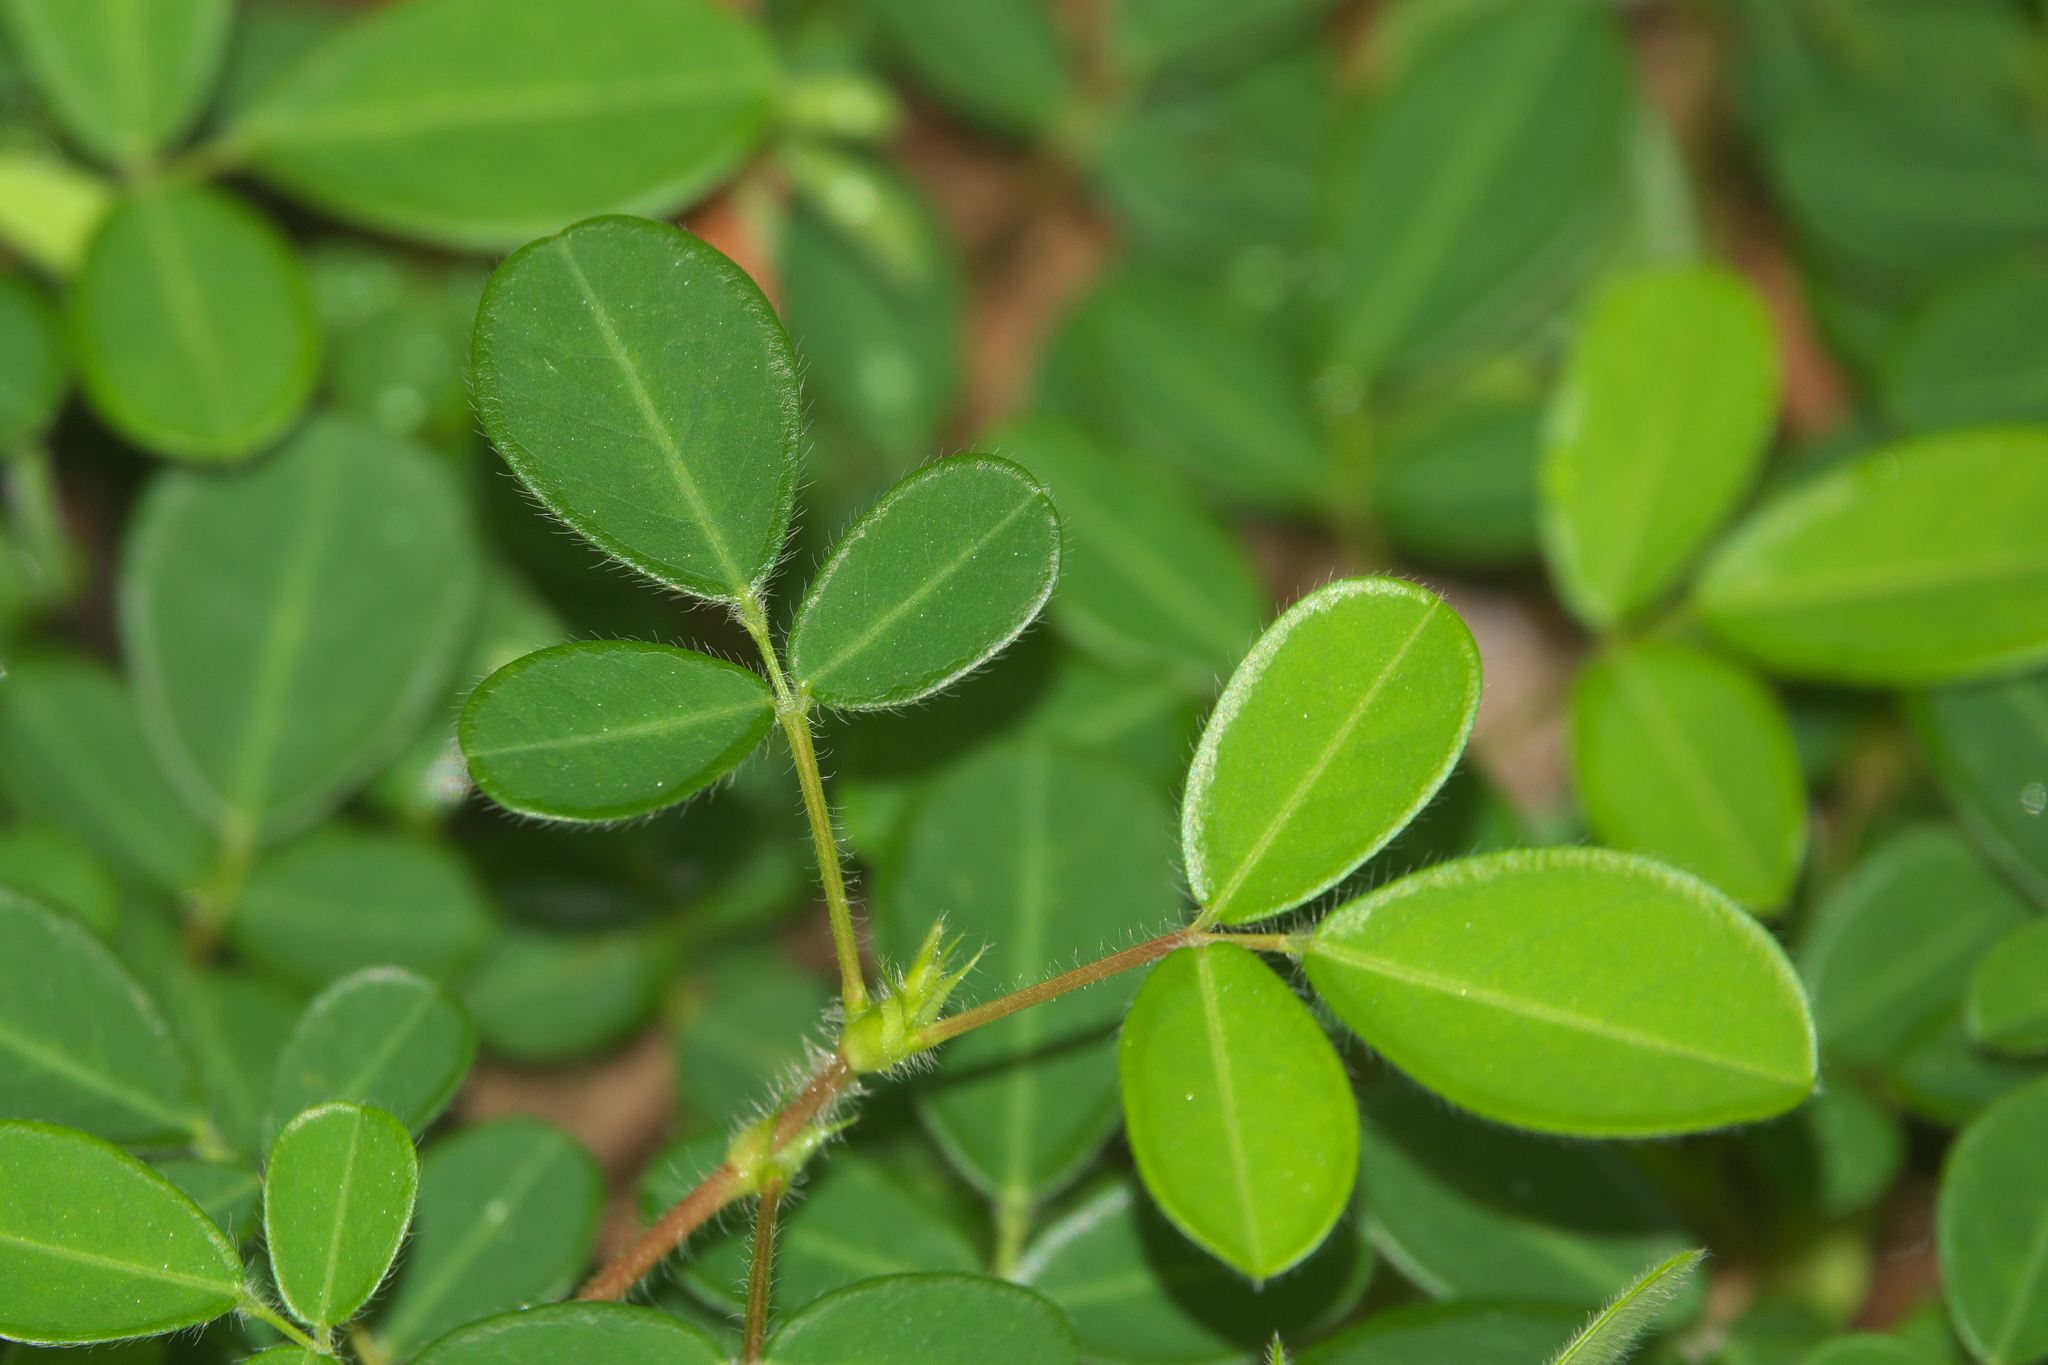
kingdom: Plantae
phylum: Tracheophyta
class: Magnoliopsida
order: Fabales
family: Fabaceae
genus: Grona
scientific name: Grona triflora
